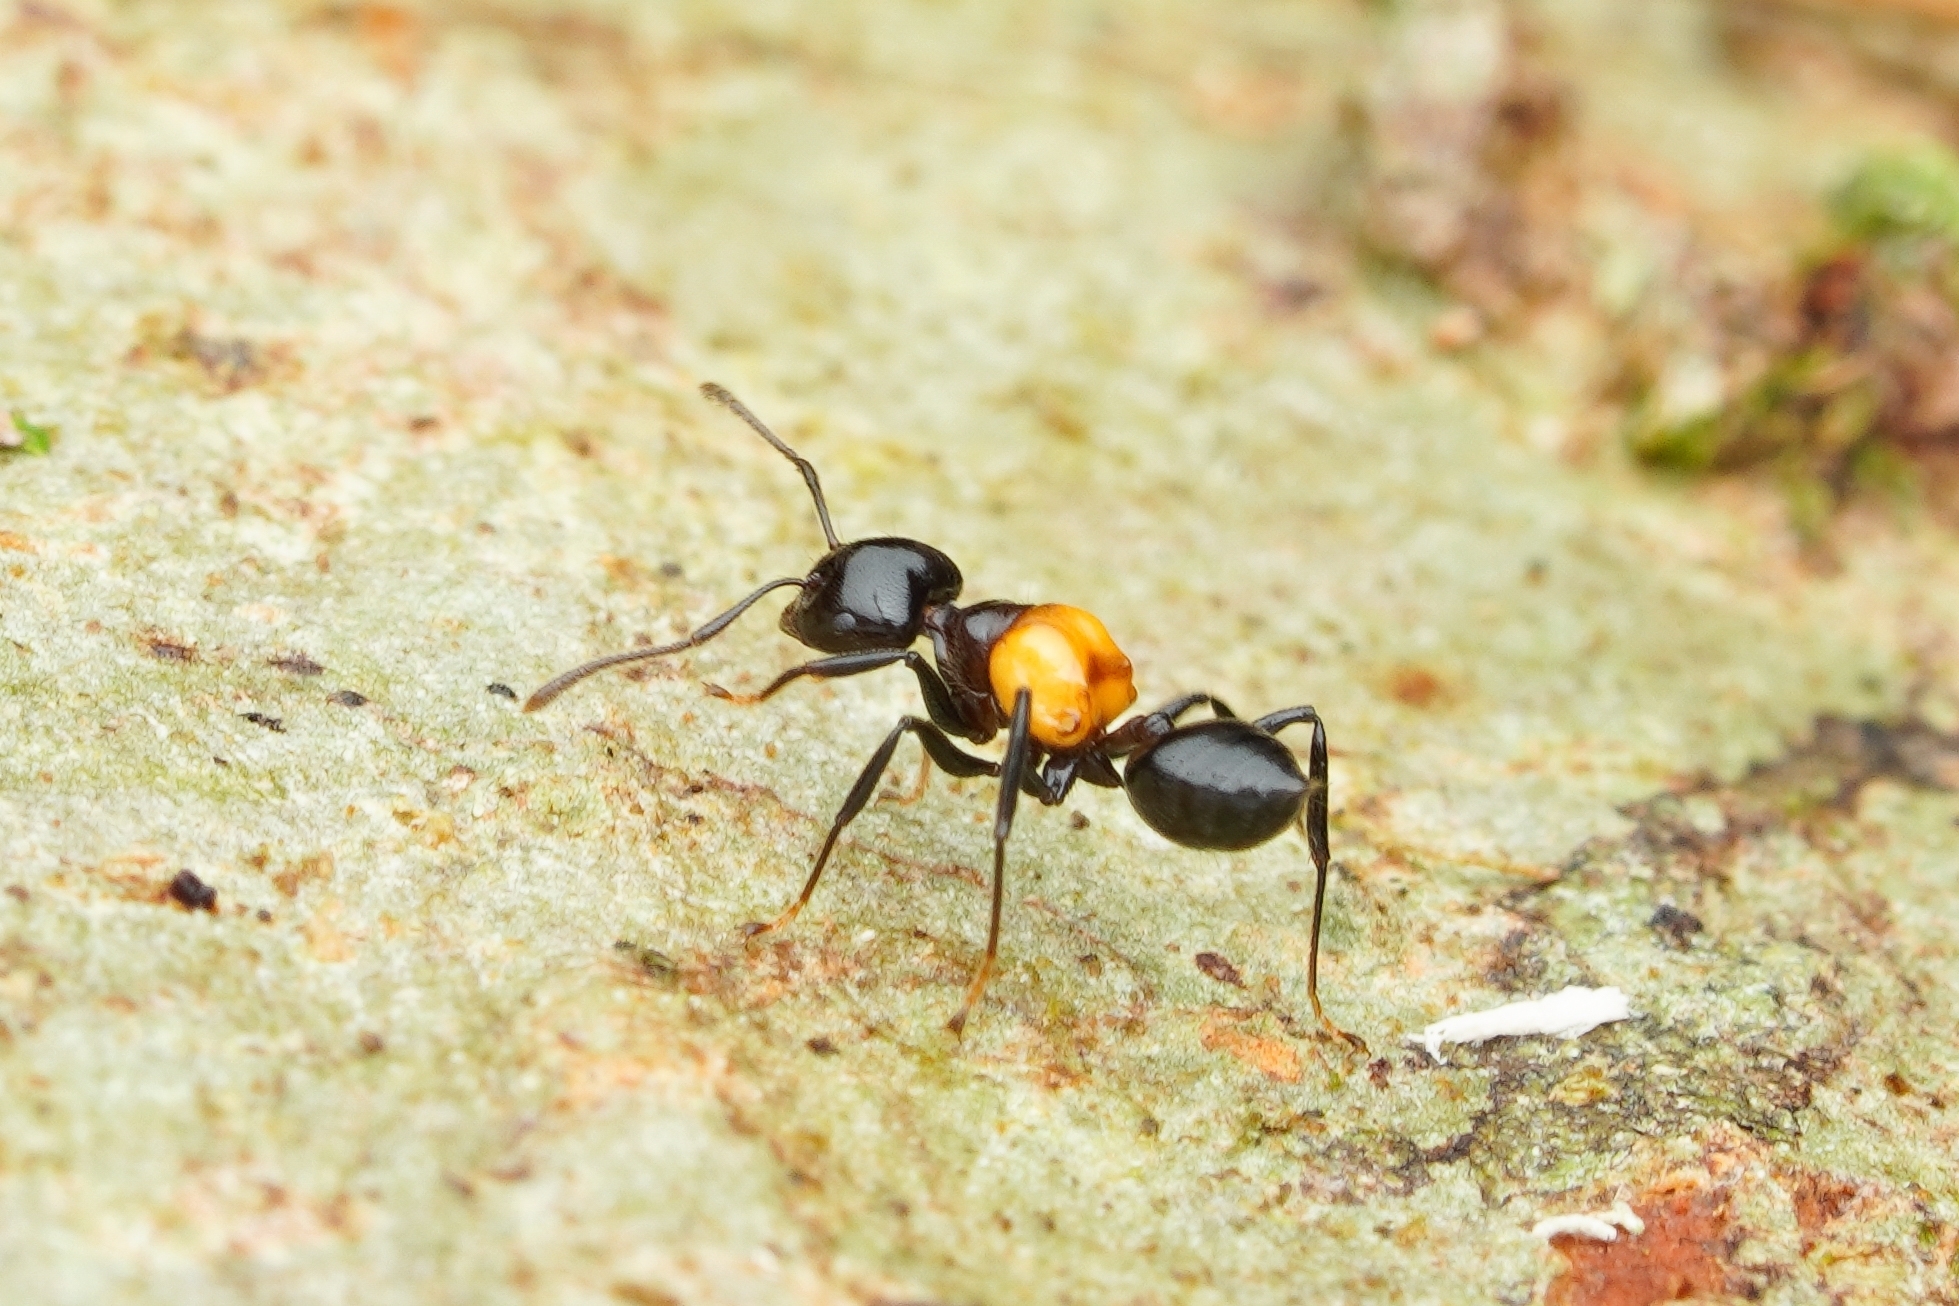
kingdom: Animalia
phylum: Arthropoda
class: Insecta
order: Hymenoptera
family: Formicidae
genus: Crematogaster
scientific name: Crematogaster inflata
